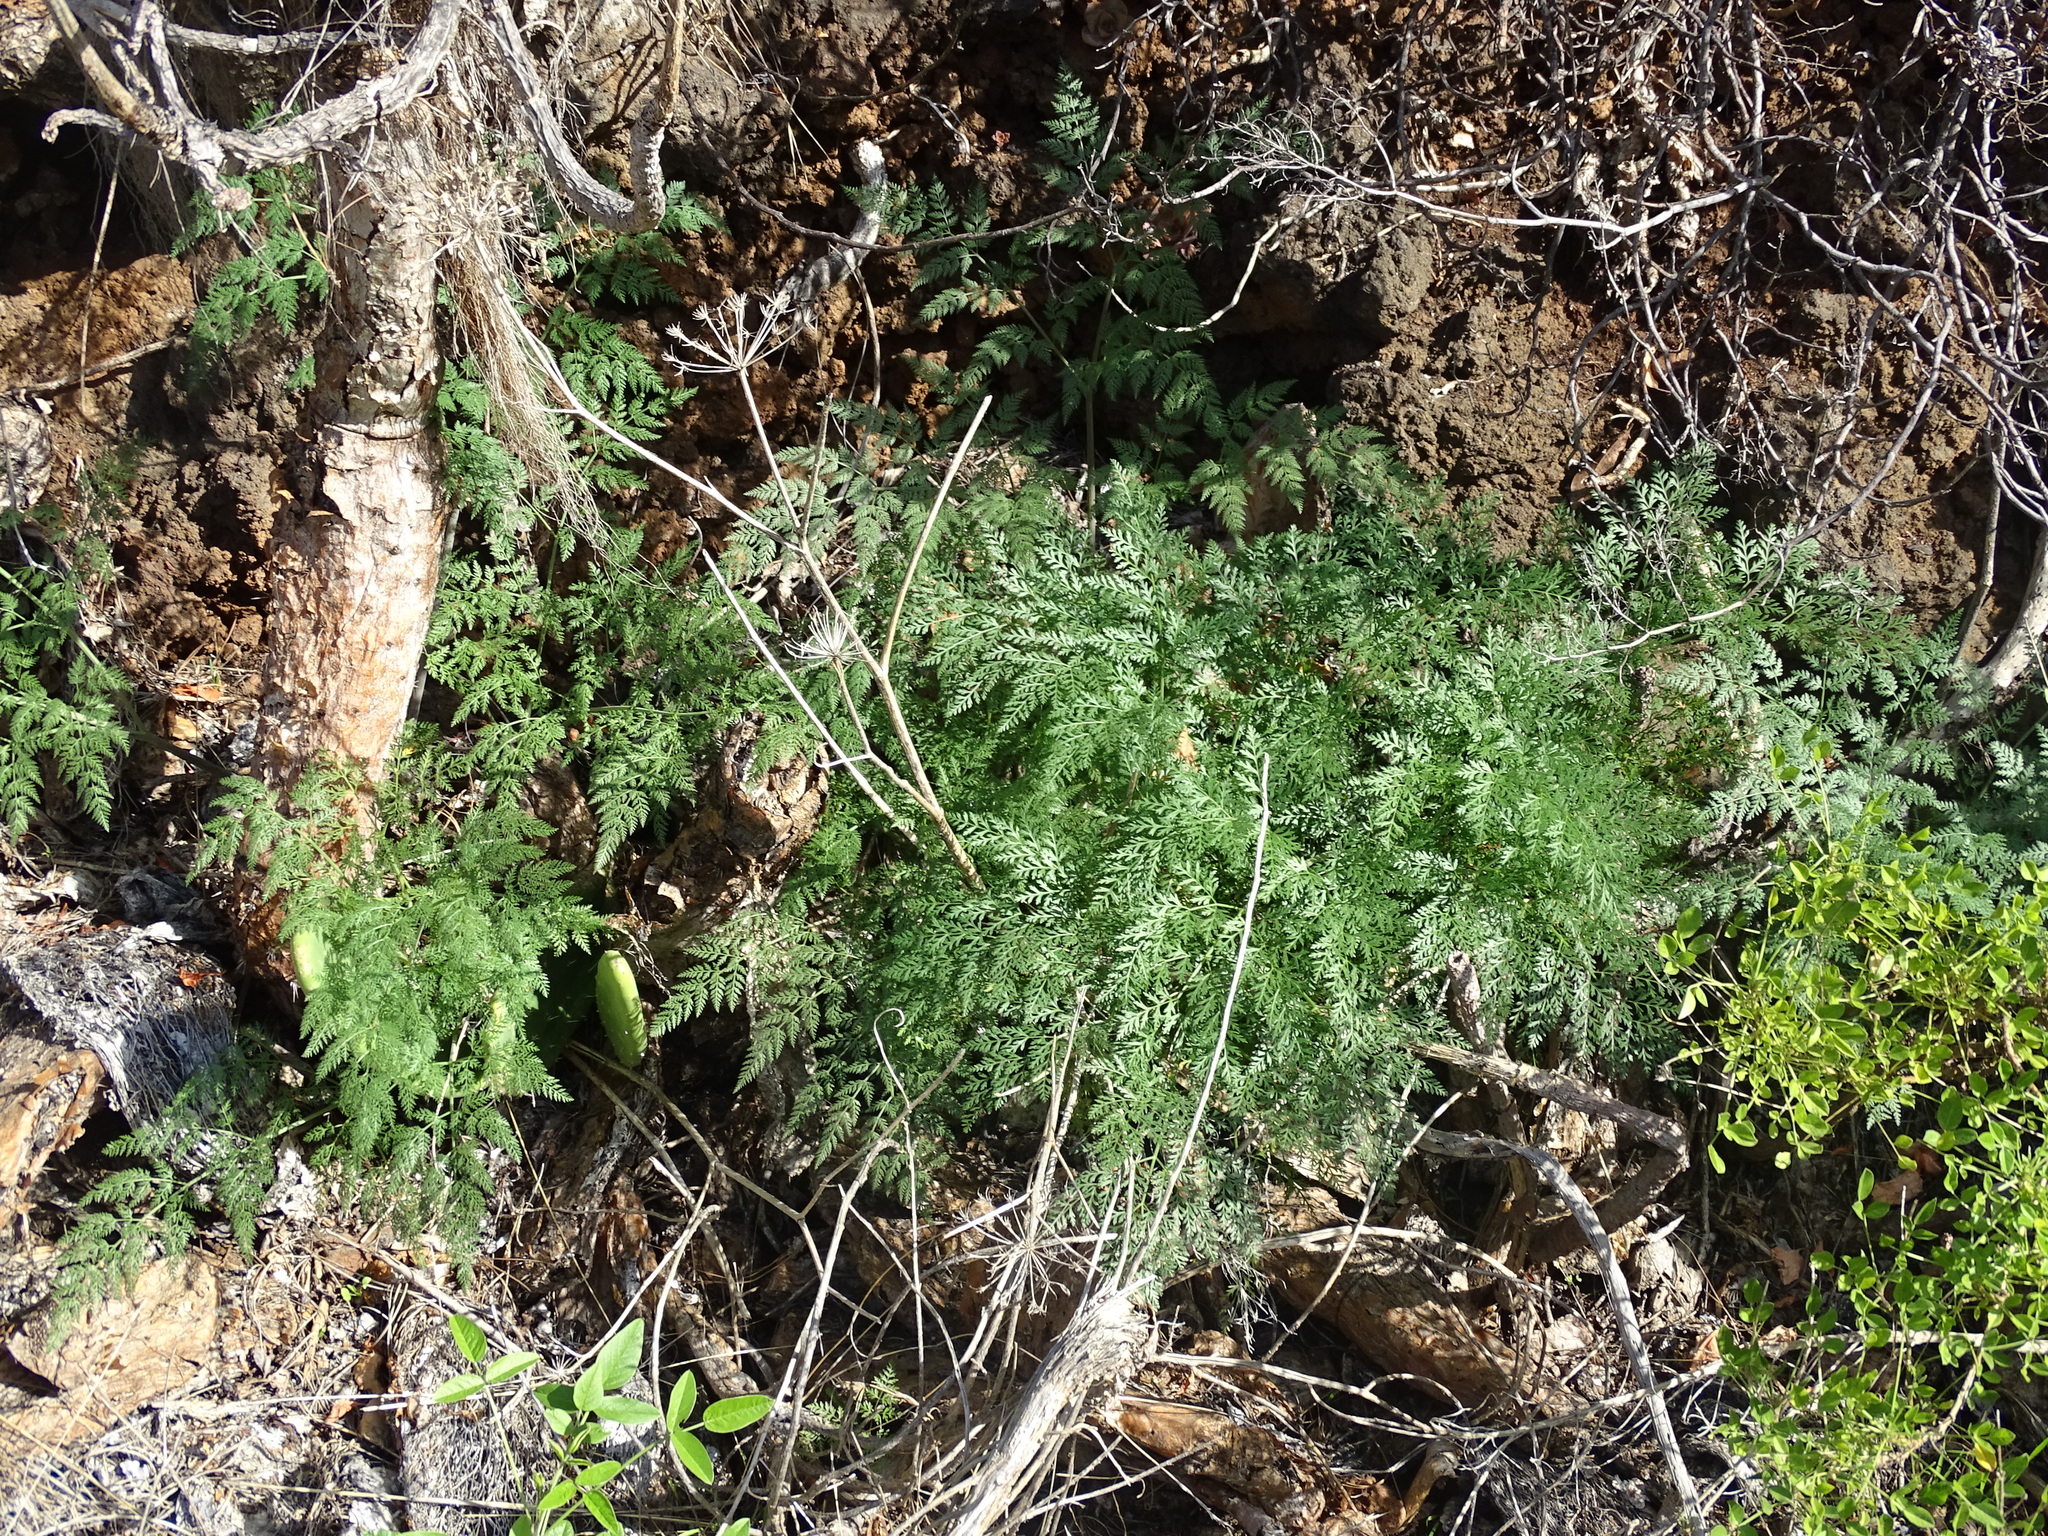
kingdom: Plantae
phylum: Tracheophyta
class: Magnoliopsida
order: Apiales
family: Apiaceae
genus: Todaroa
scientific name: Todaroa aurea
